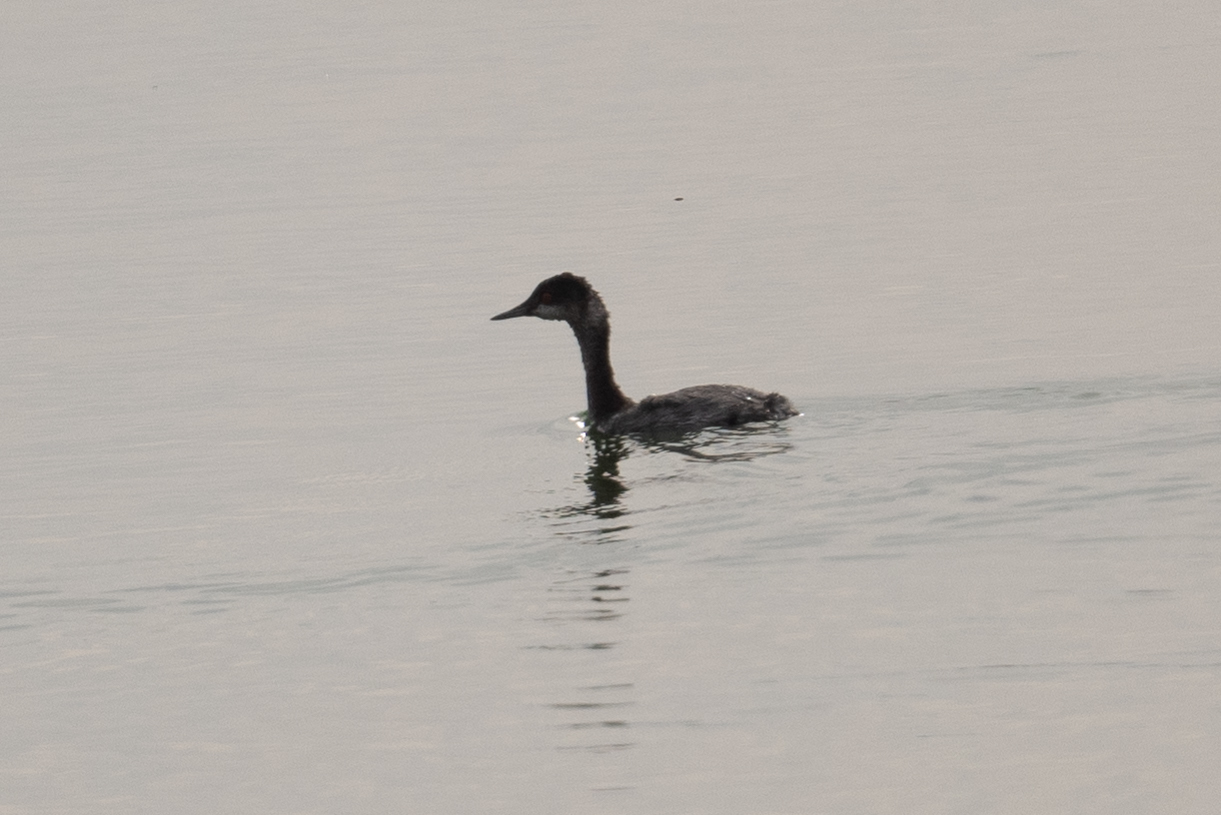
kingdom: Animalia
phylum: Chordata
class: Aves
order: Podicipediformes
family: Podicipedidae
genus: Podiceps
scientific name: Podiceps nigricollis
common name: Black-necked grebe
